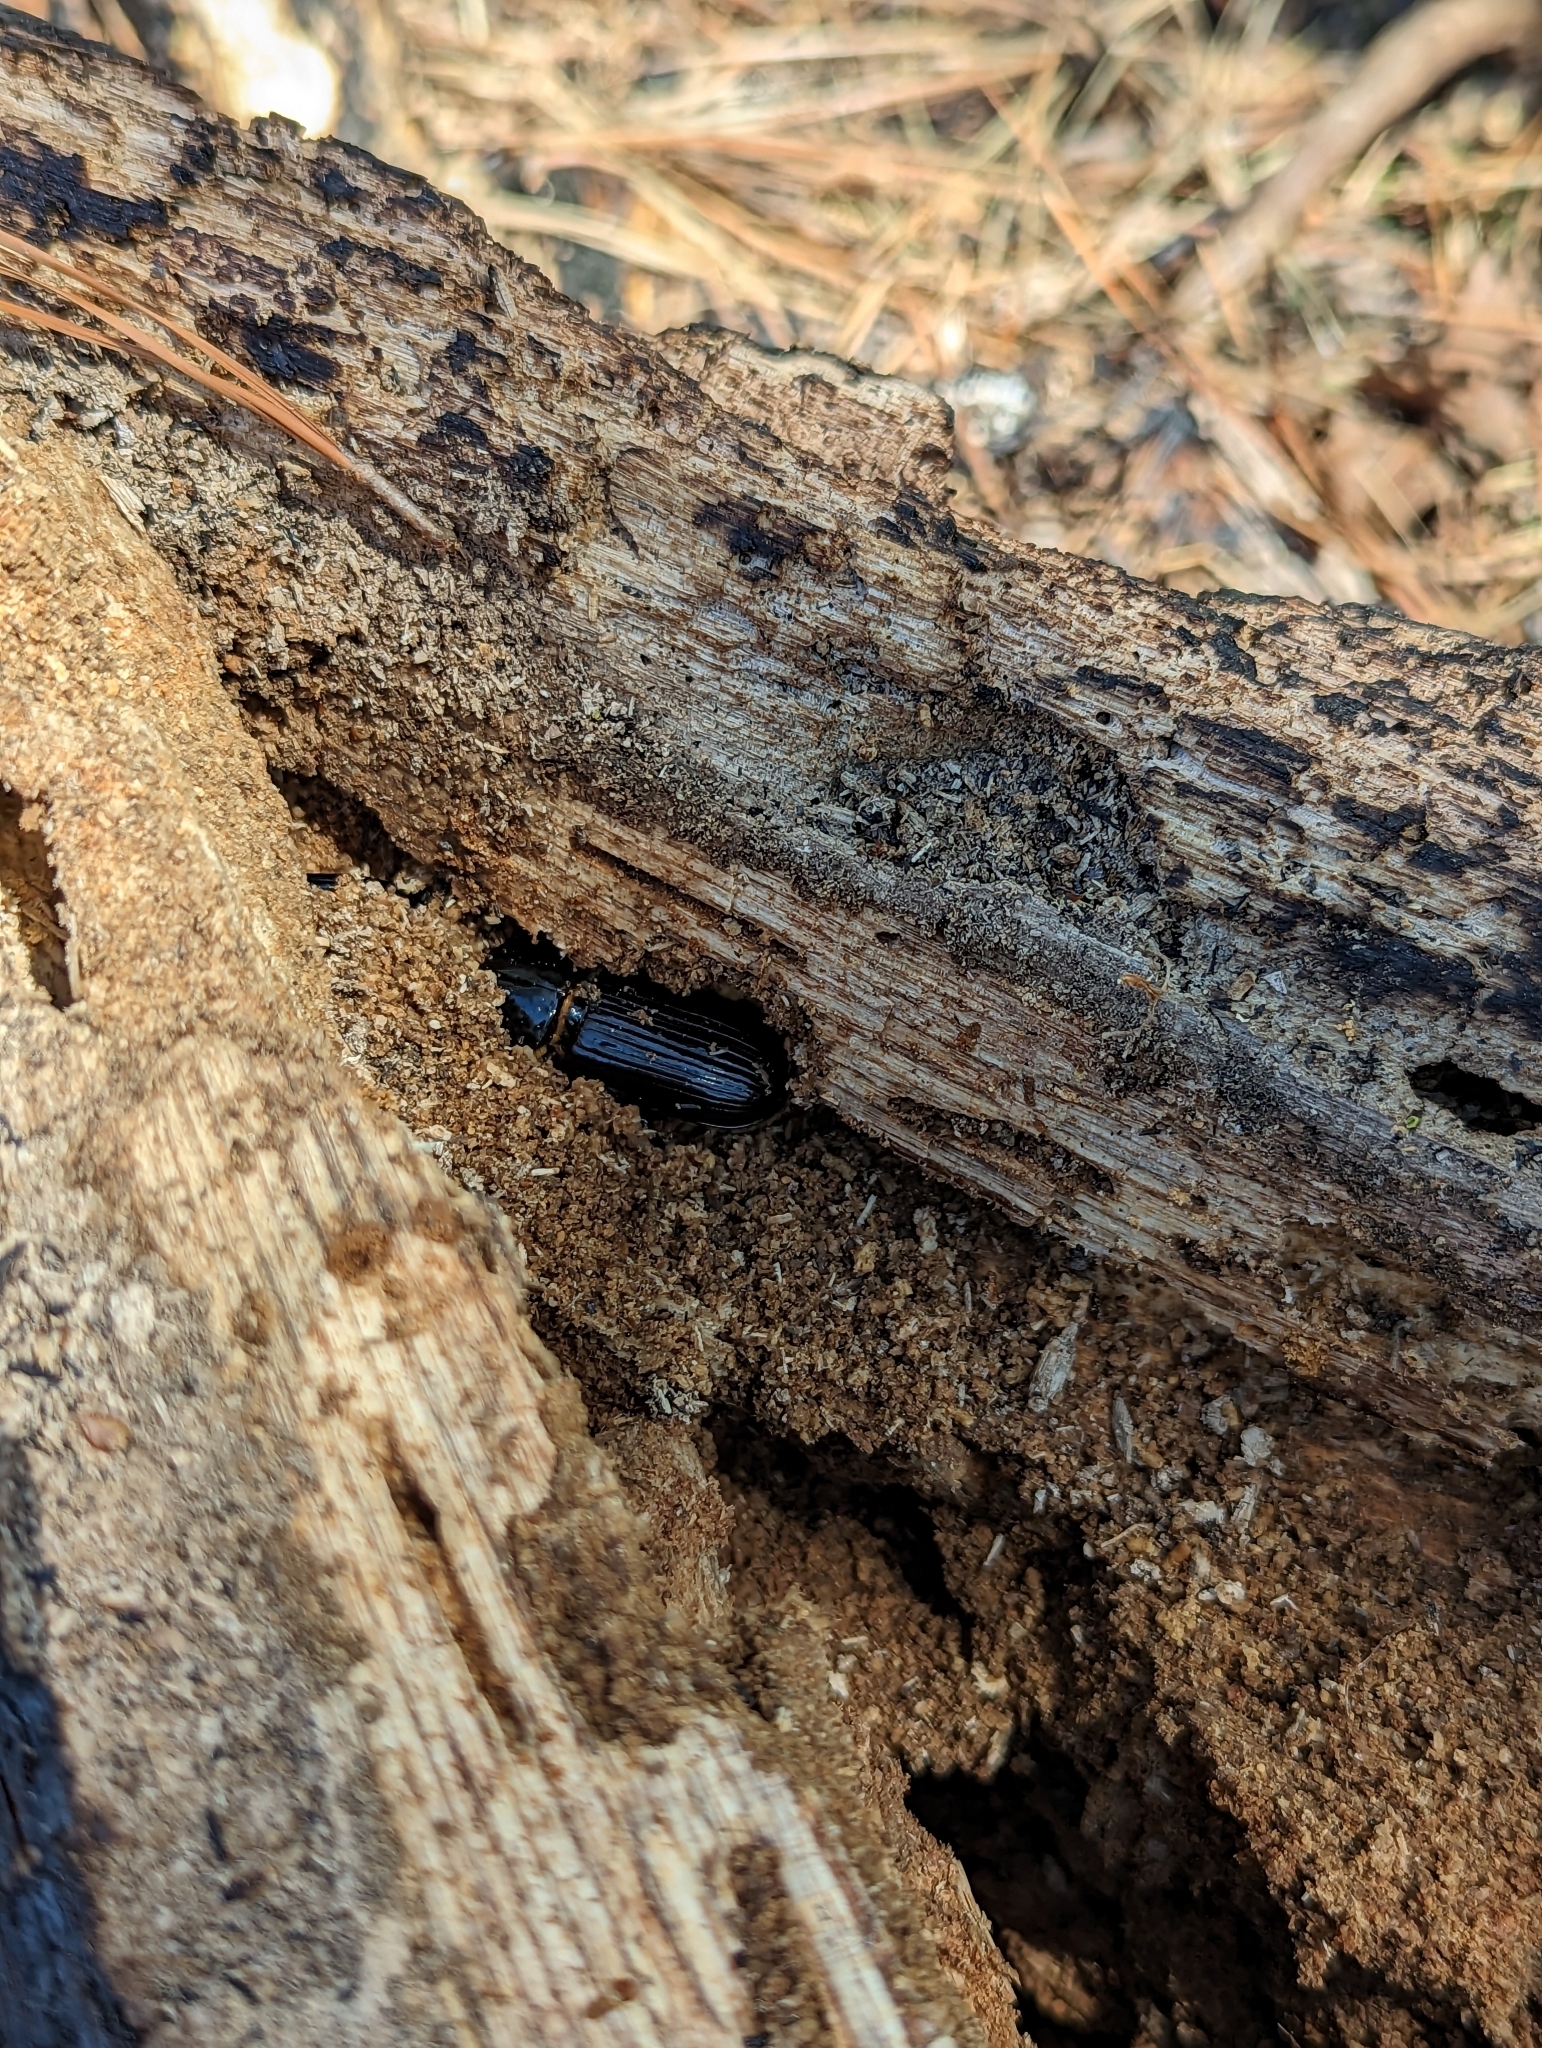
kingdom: Animalia
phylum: Arthropoda
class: Insecta
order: Coleoptera
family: Passalidae
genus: Odontotaenius
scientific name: Odontotaenius disjunctus
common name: Patent leather beetle
